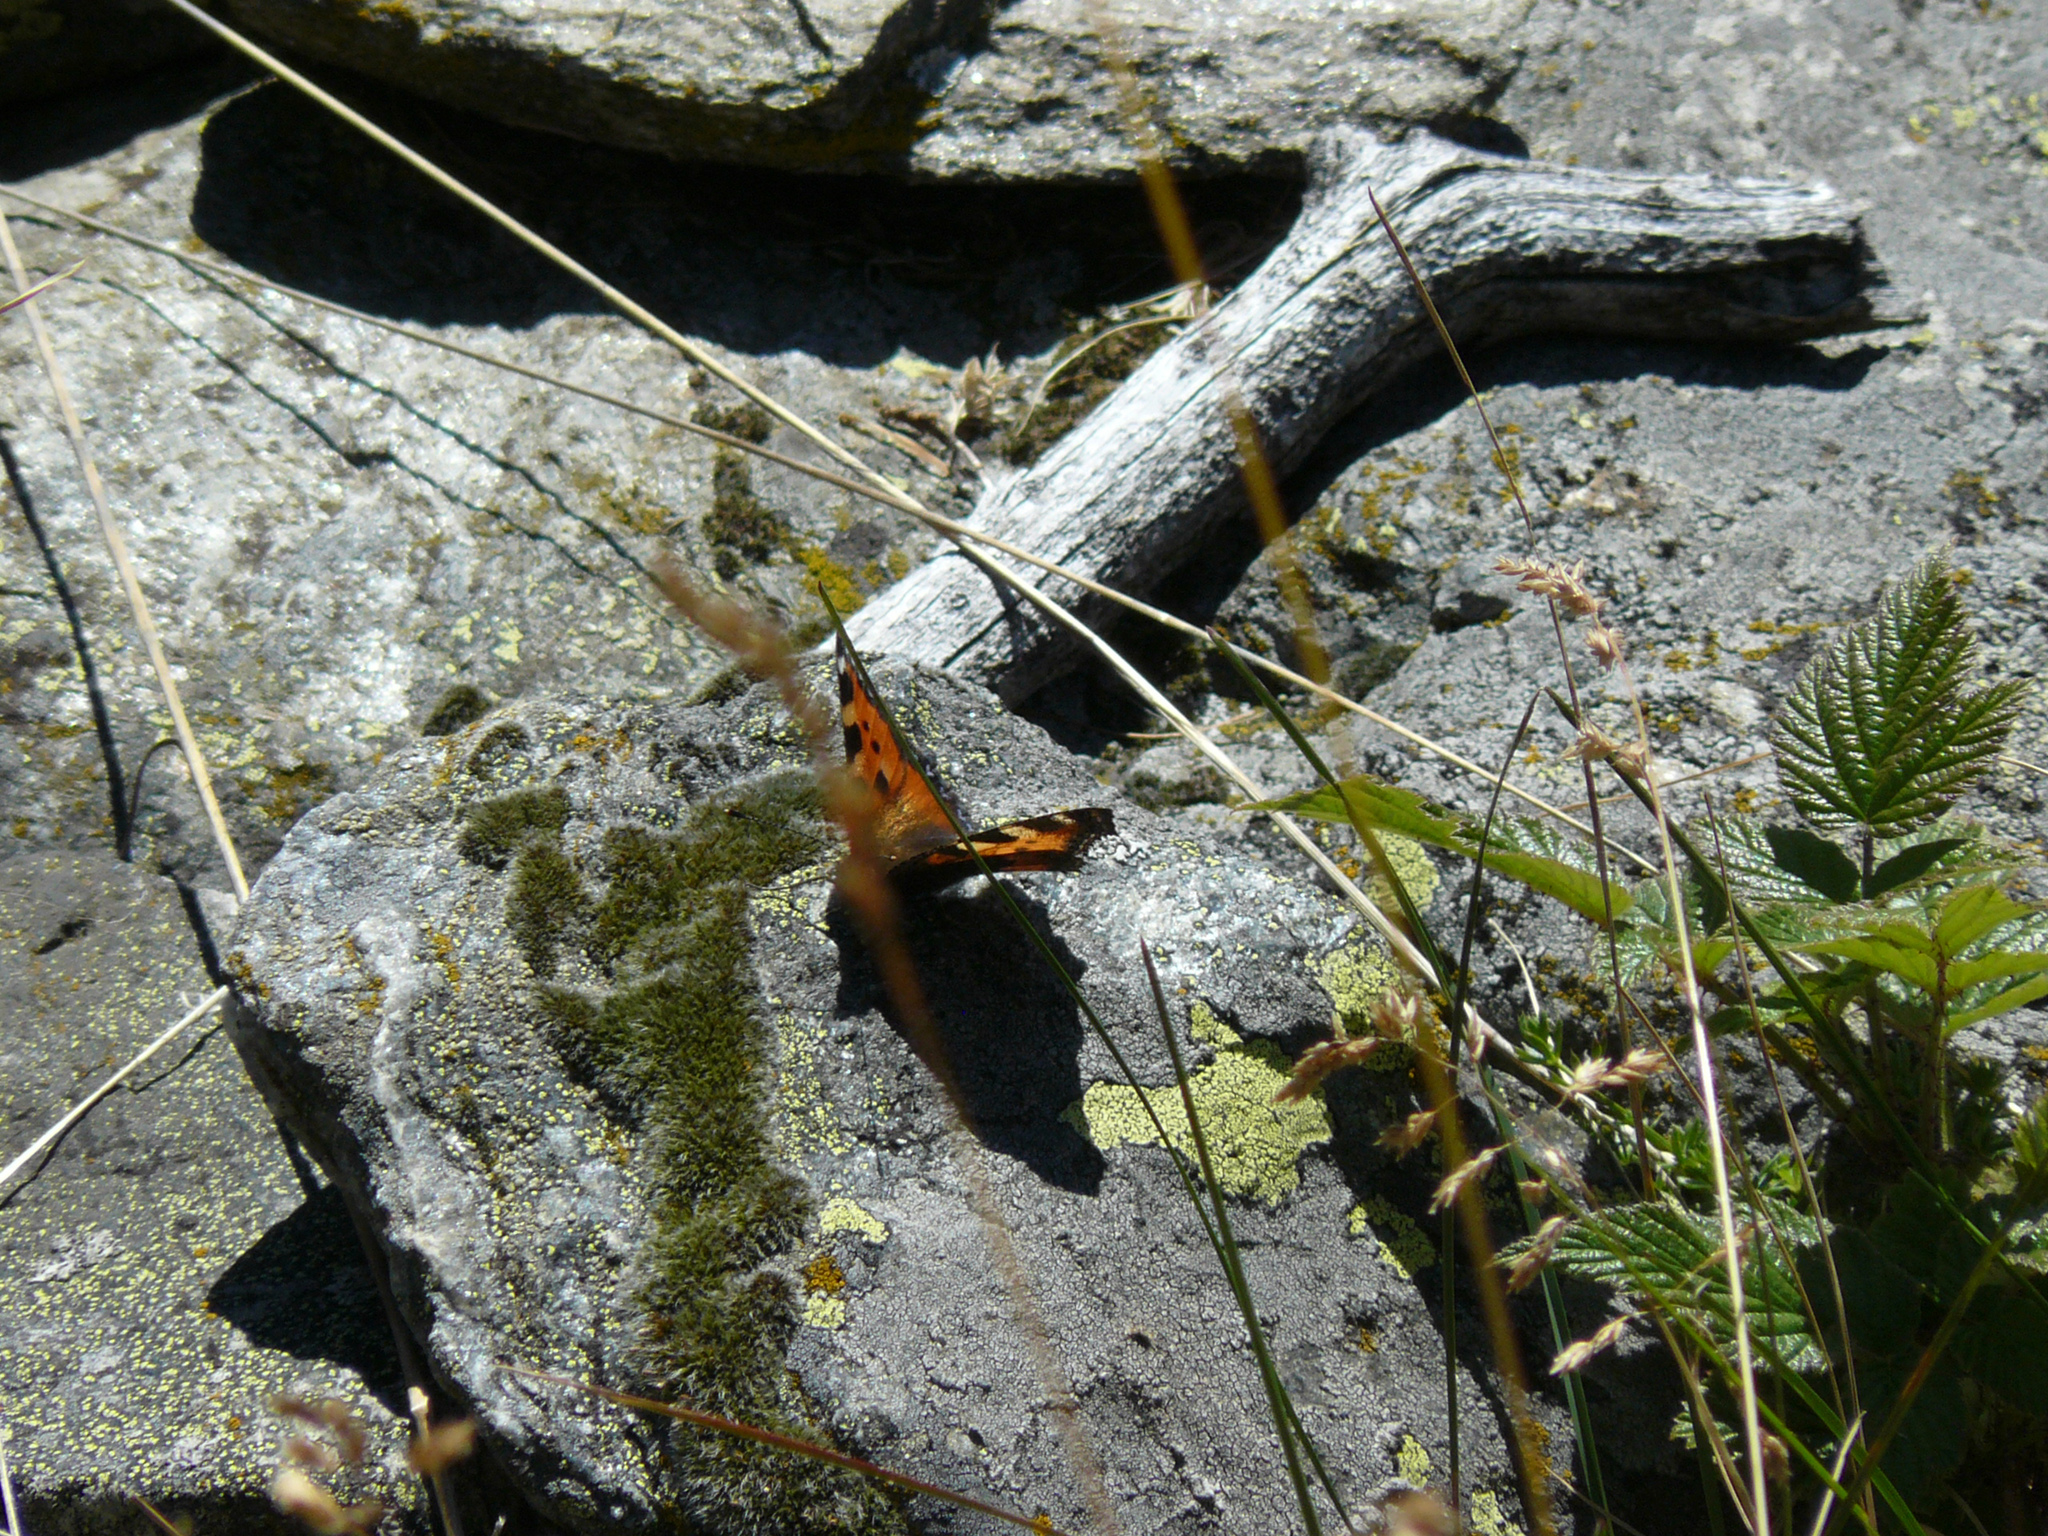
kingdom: Animalia
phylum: Arthropoda
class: Insecta
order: Lepidoptera
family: Nymphalidae
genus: Aglais
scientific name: Aglais urticae
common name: Small tortoiseshell
